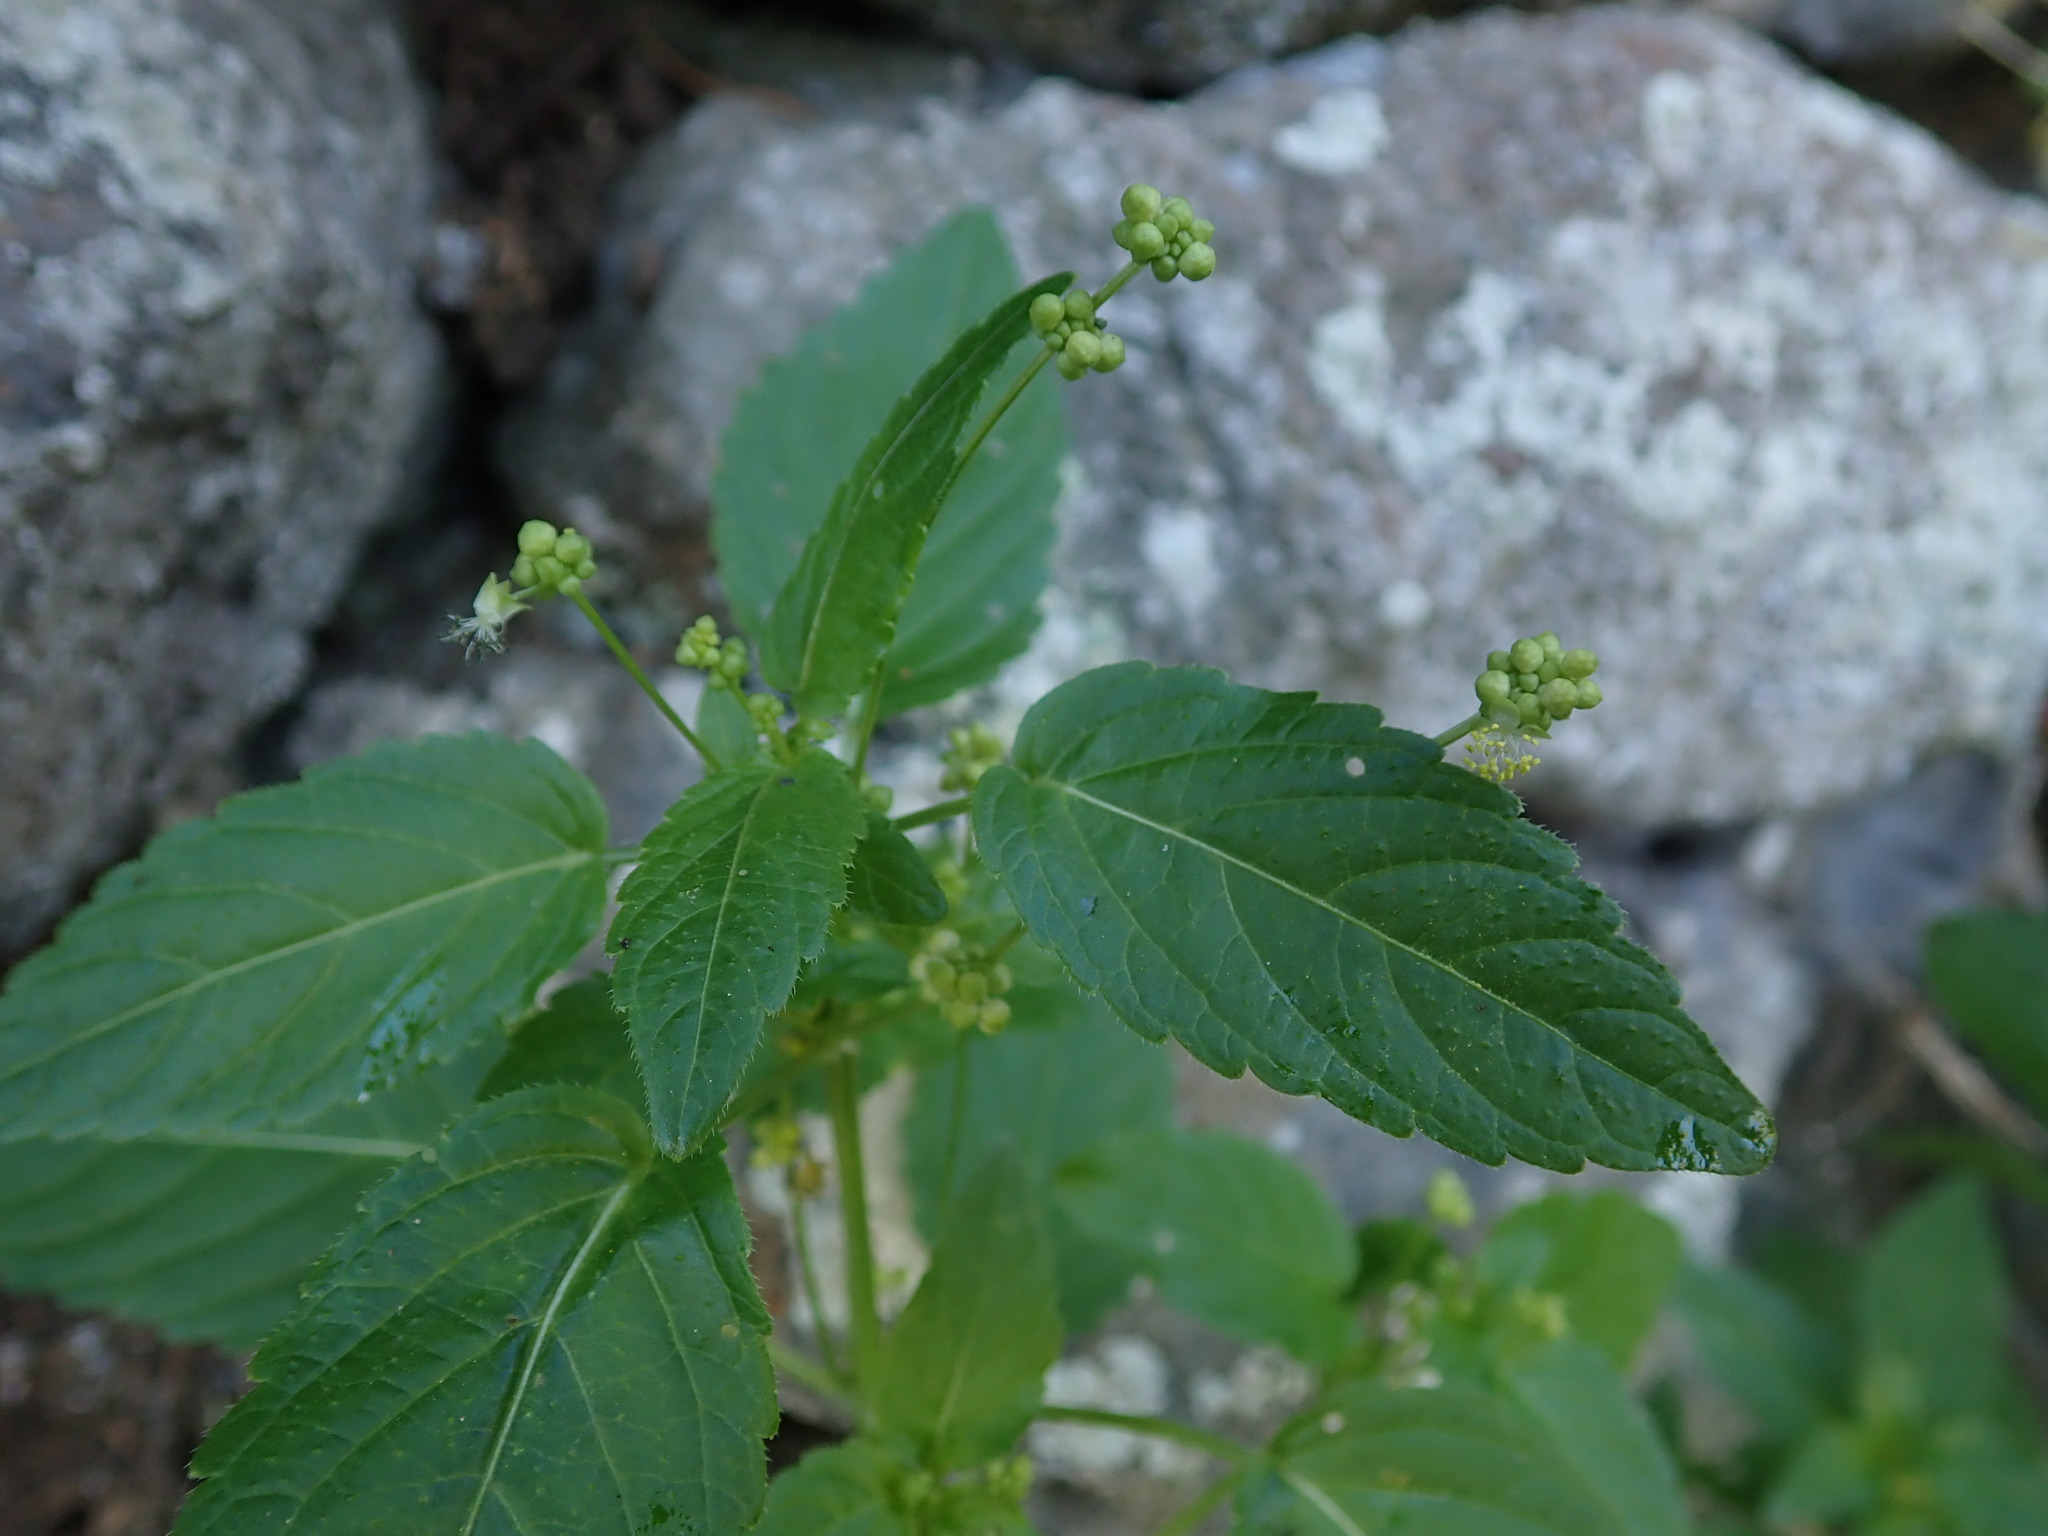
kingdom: Plantae
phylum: Tracheophyta
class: Magnoliopsida
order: Malpighiales
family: Euphorbiaceae
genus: Mercurialis
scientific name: Mercurialis annua
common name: Annual mercury
